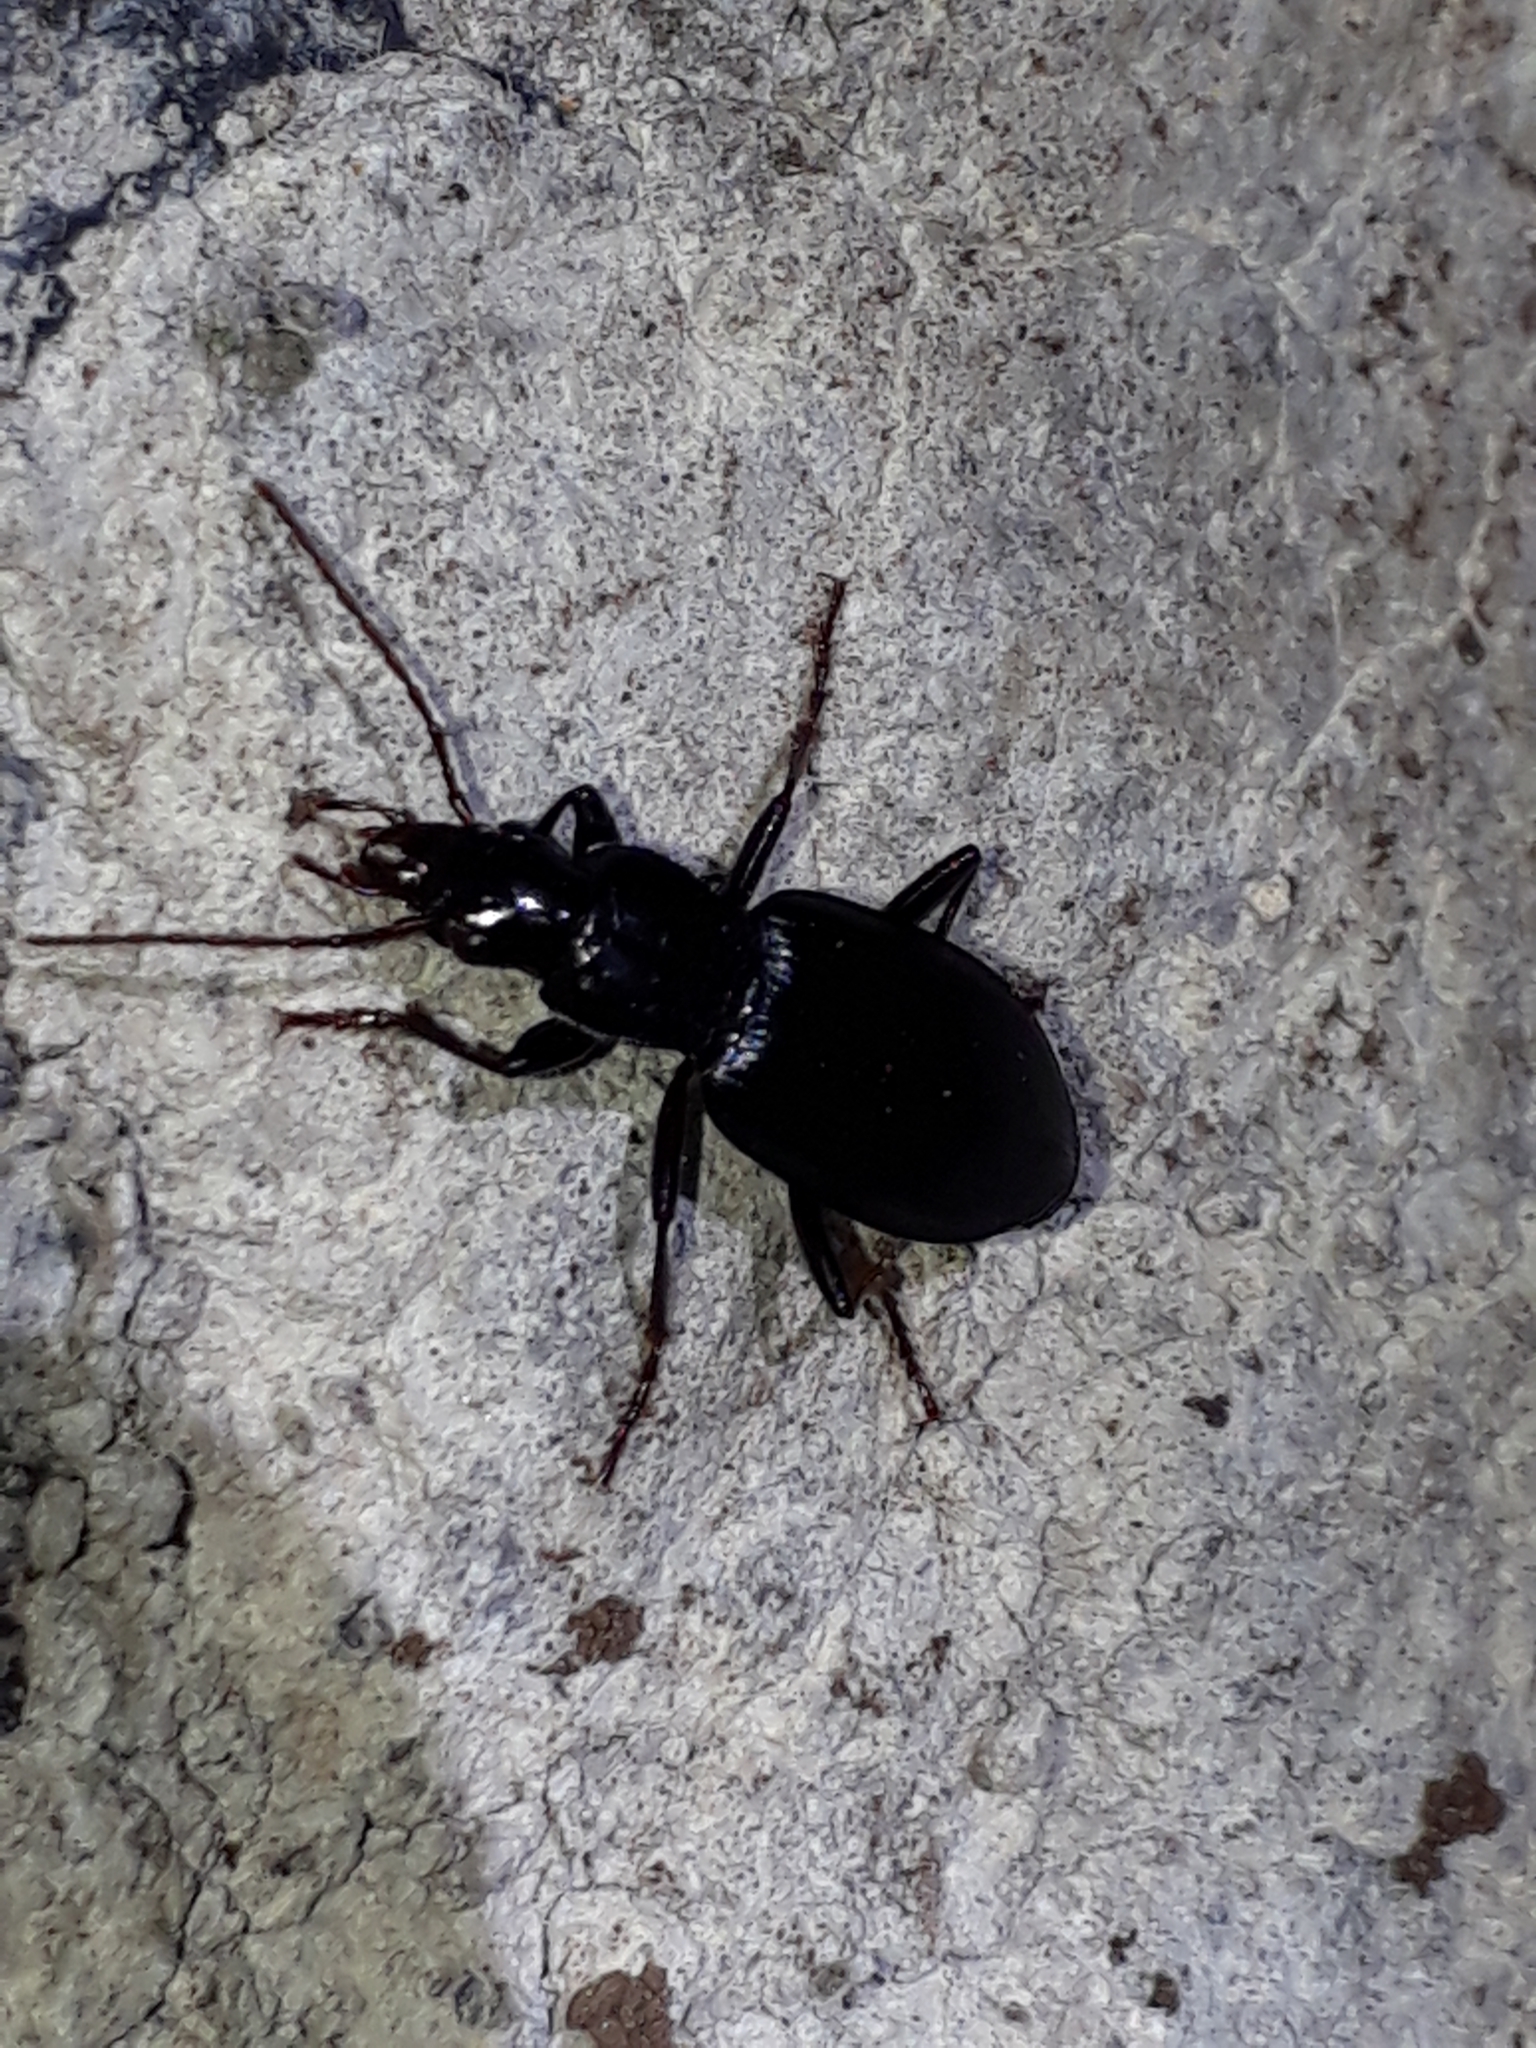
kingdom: Animalia
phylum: Arthropoda
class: Insecta
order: Coleoptera
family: Carabidae
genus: Laemostenus
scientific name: Laemostenus complanatus
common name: Cosmopolitan ground beetle
